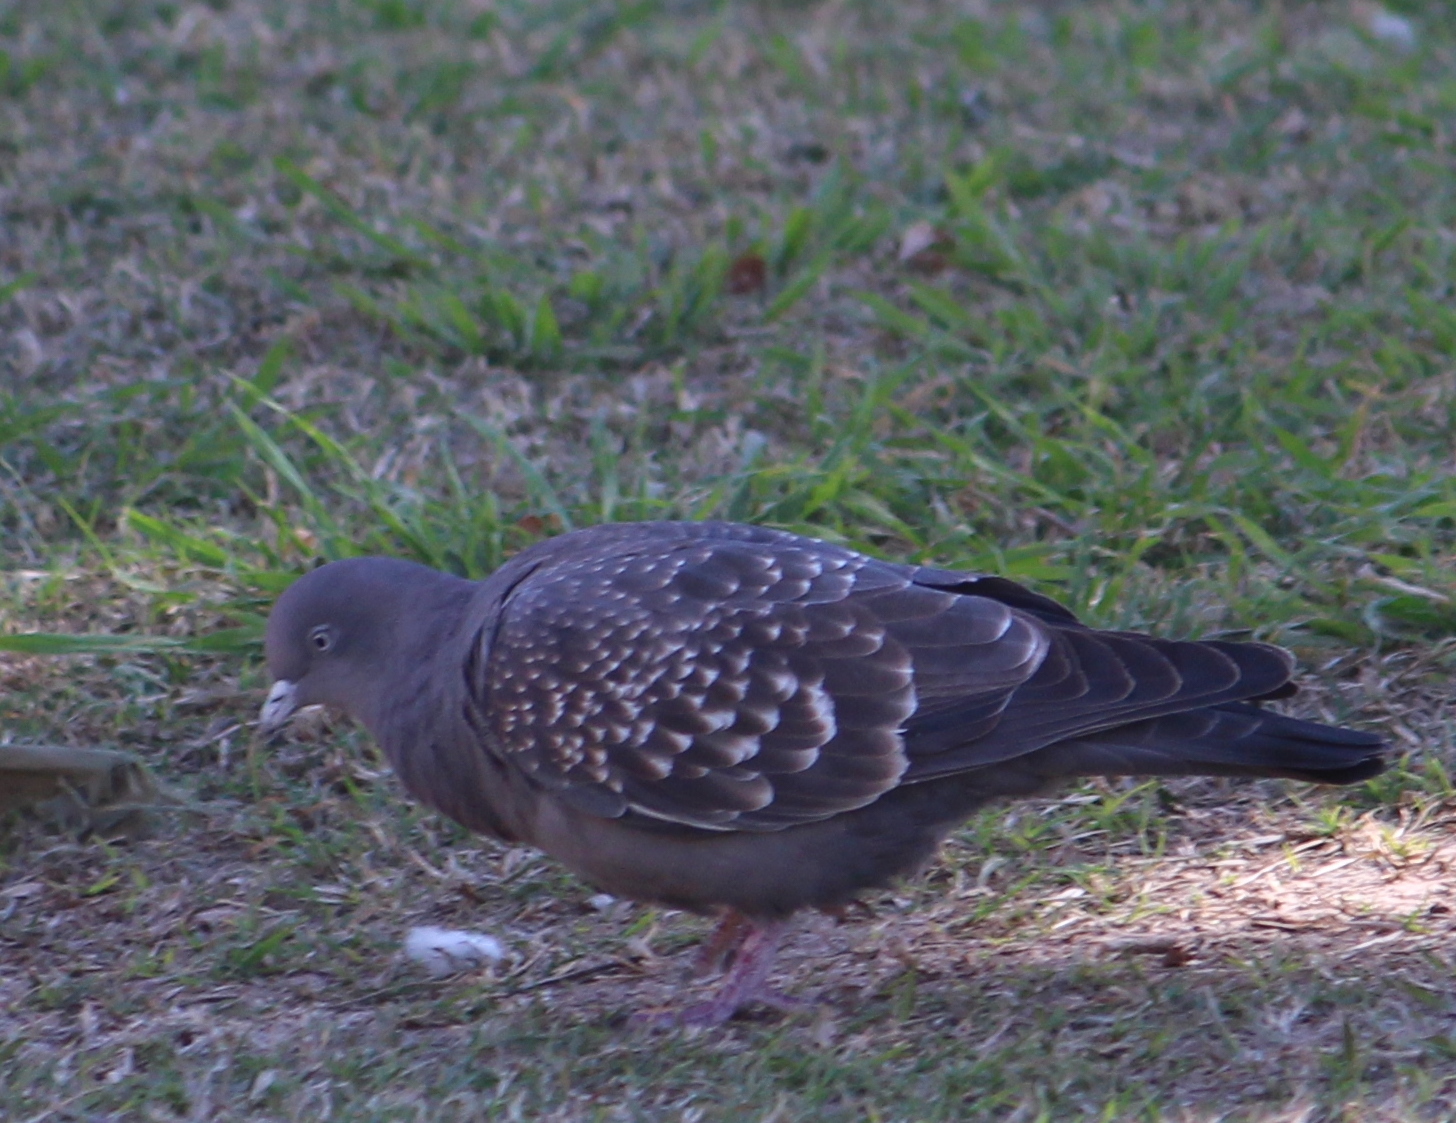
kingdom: Animalia
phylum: Chordata
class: Aves
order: Columbiformes
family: Columbidae
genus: Patagioenas
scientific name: Patagioenas maculosa
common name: Spot-winged pigeon
